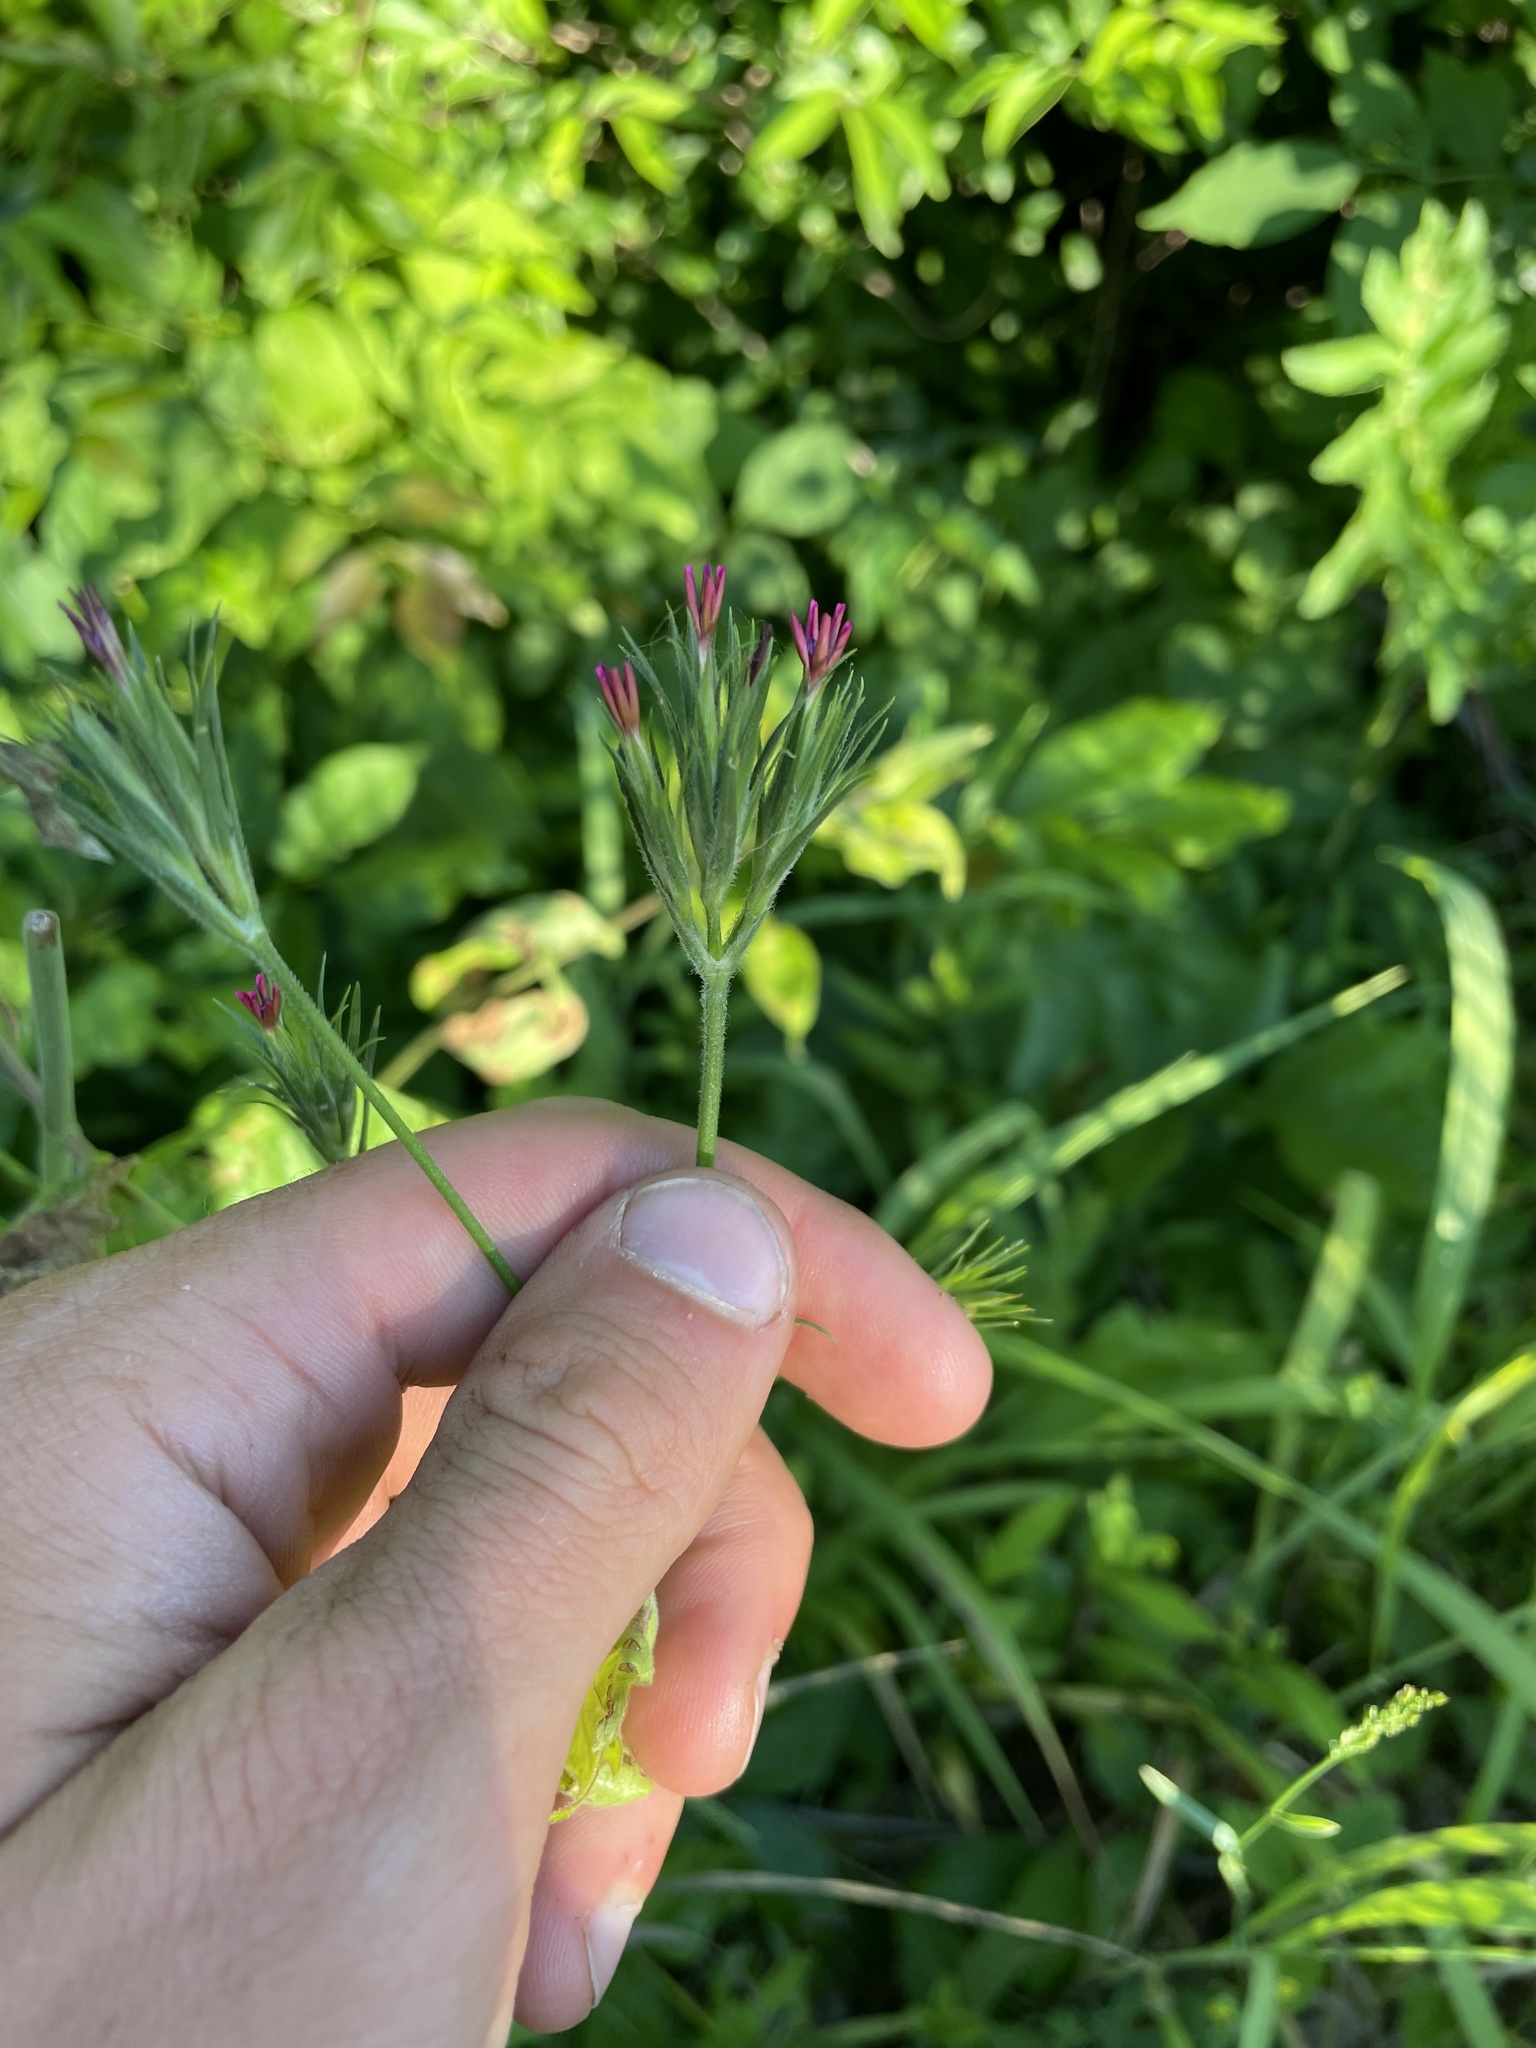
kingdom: Plantae
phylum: Tracheophyta
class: Magnoliopsida
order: Caryophyllales
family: Caryophyllaceae
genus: Dianthus
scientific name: Dianthus armeria
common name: Deptford pink
